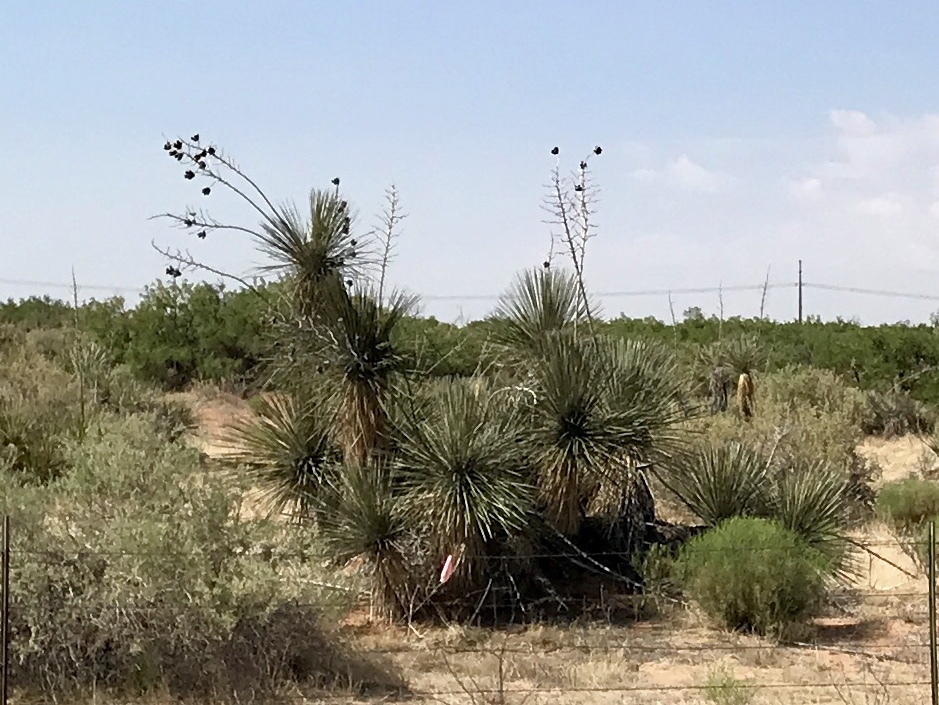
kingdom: Plantae
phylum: Tracheophyta
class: Liliopsida
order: Asparagales
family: Asparagaceae
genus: Yucca
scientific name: Yucca elata
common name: Palmella
